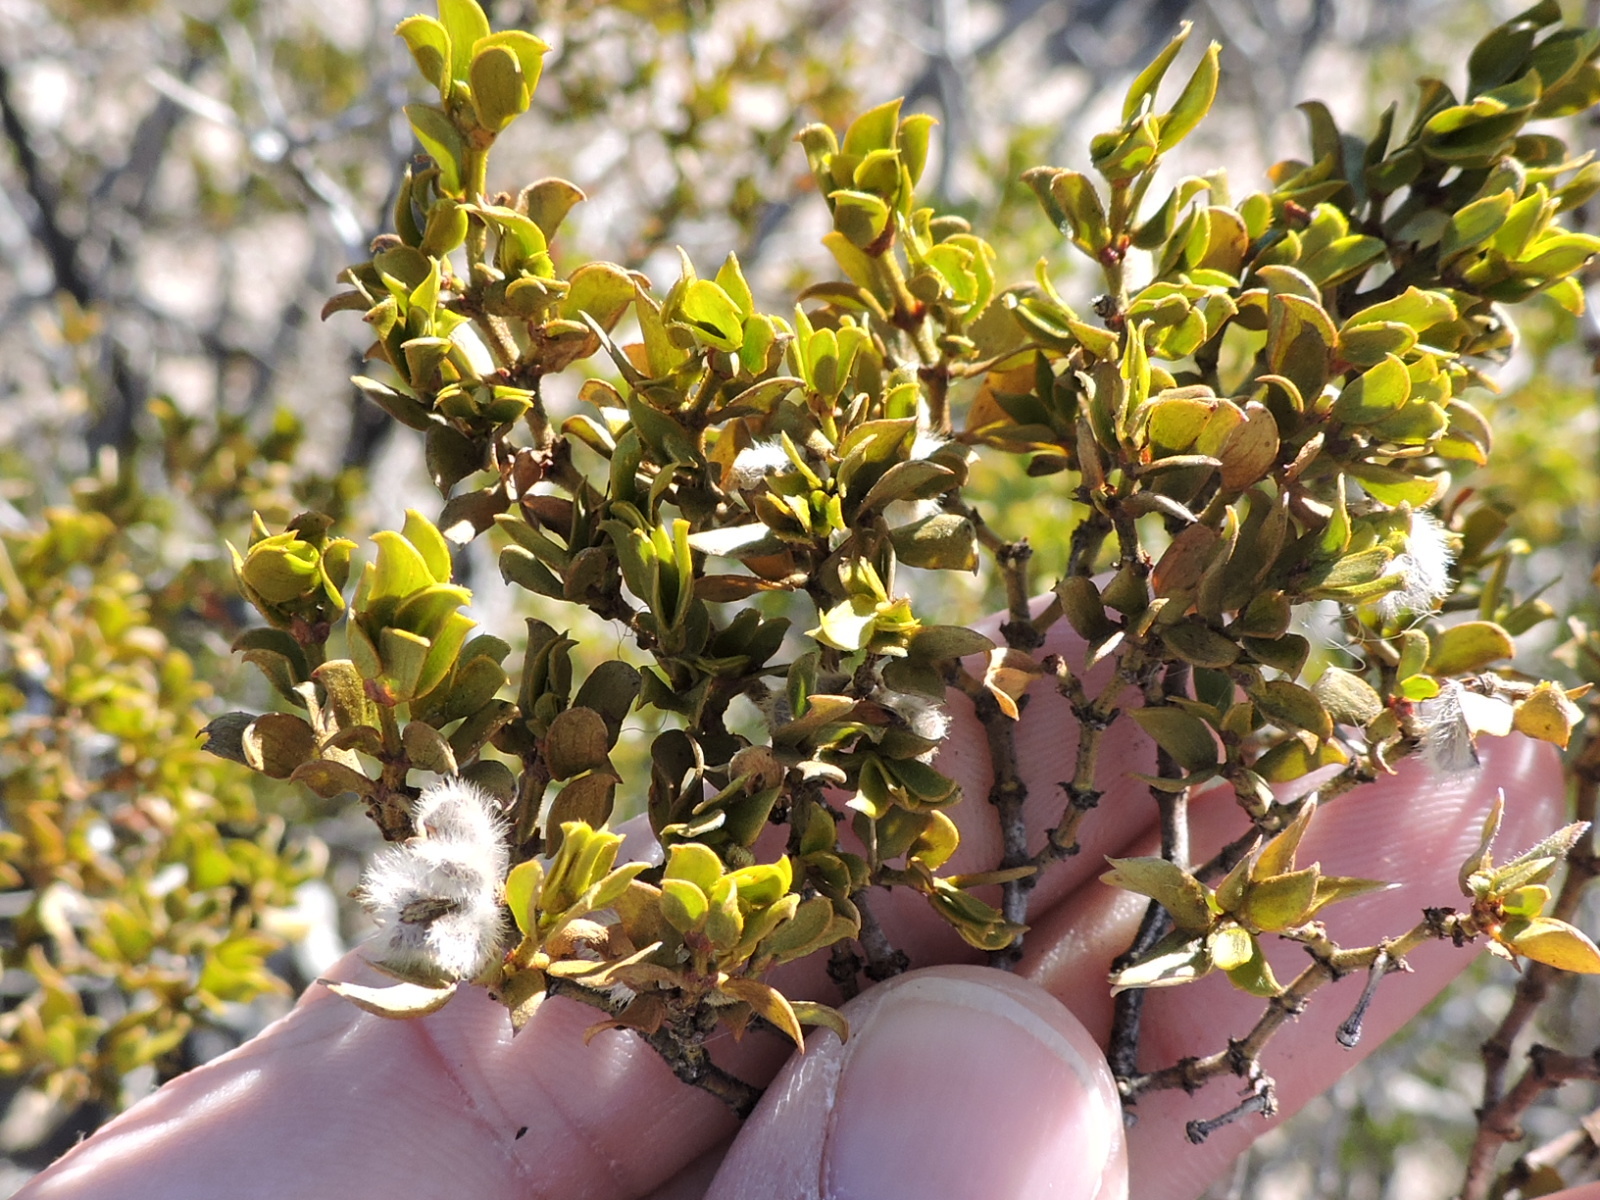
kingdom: Plantae
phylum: Tracheophyta
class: Magnoliopsida
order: Zygophyllales
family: Zygophyllaceae
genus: Larrea
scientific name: Larrea tridentata
